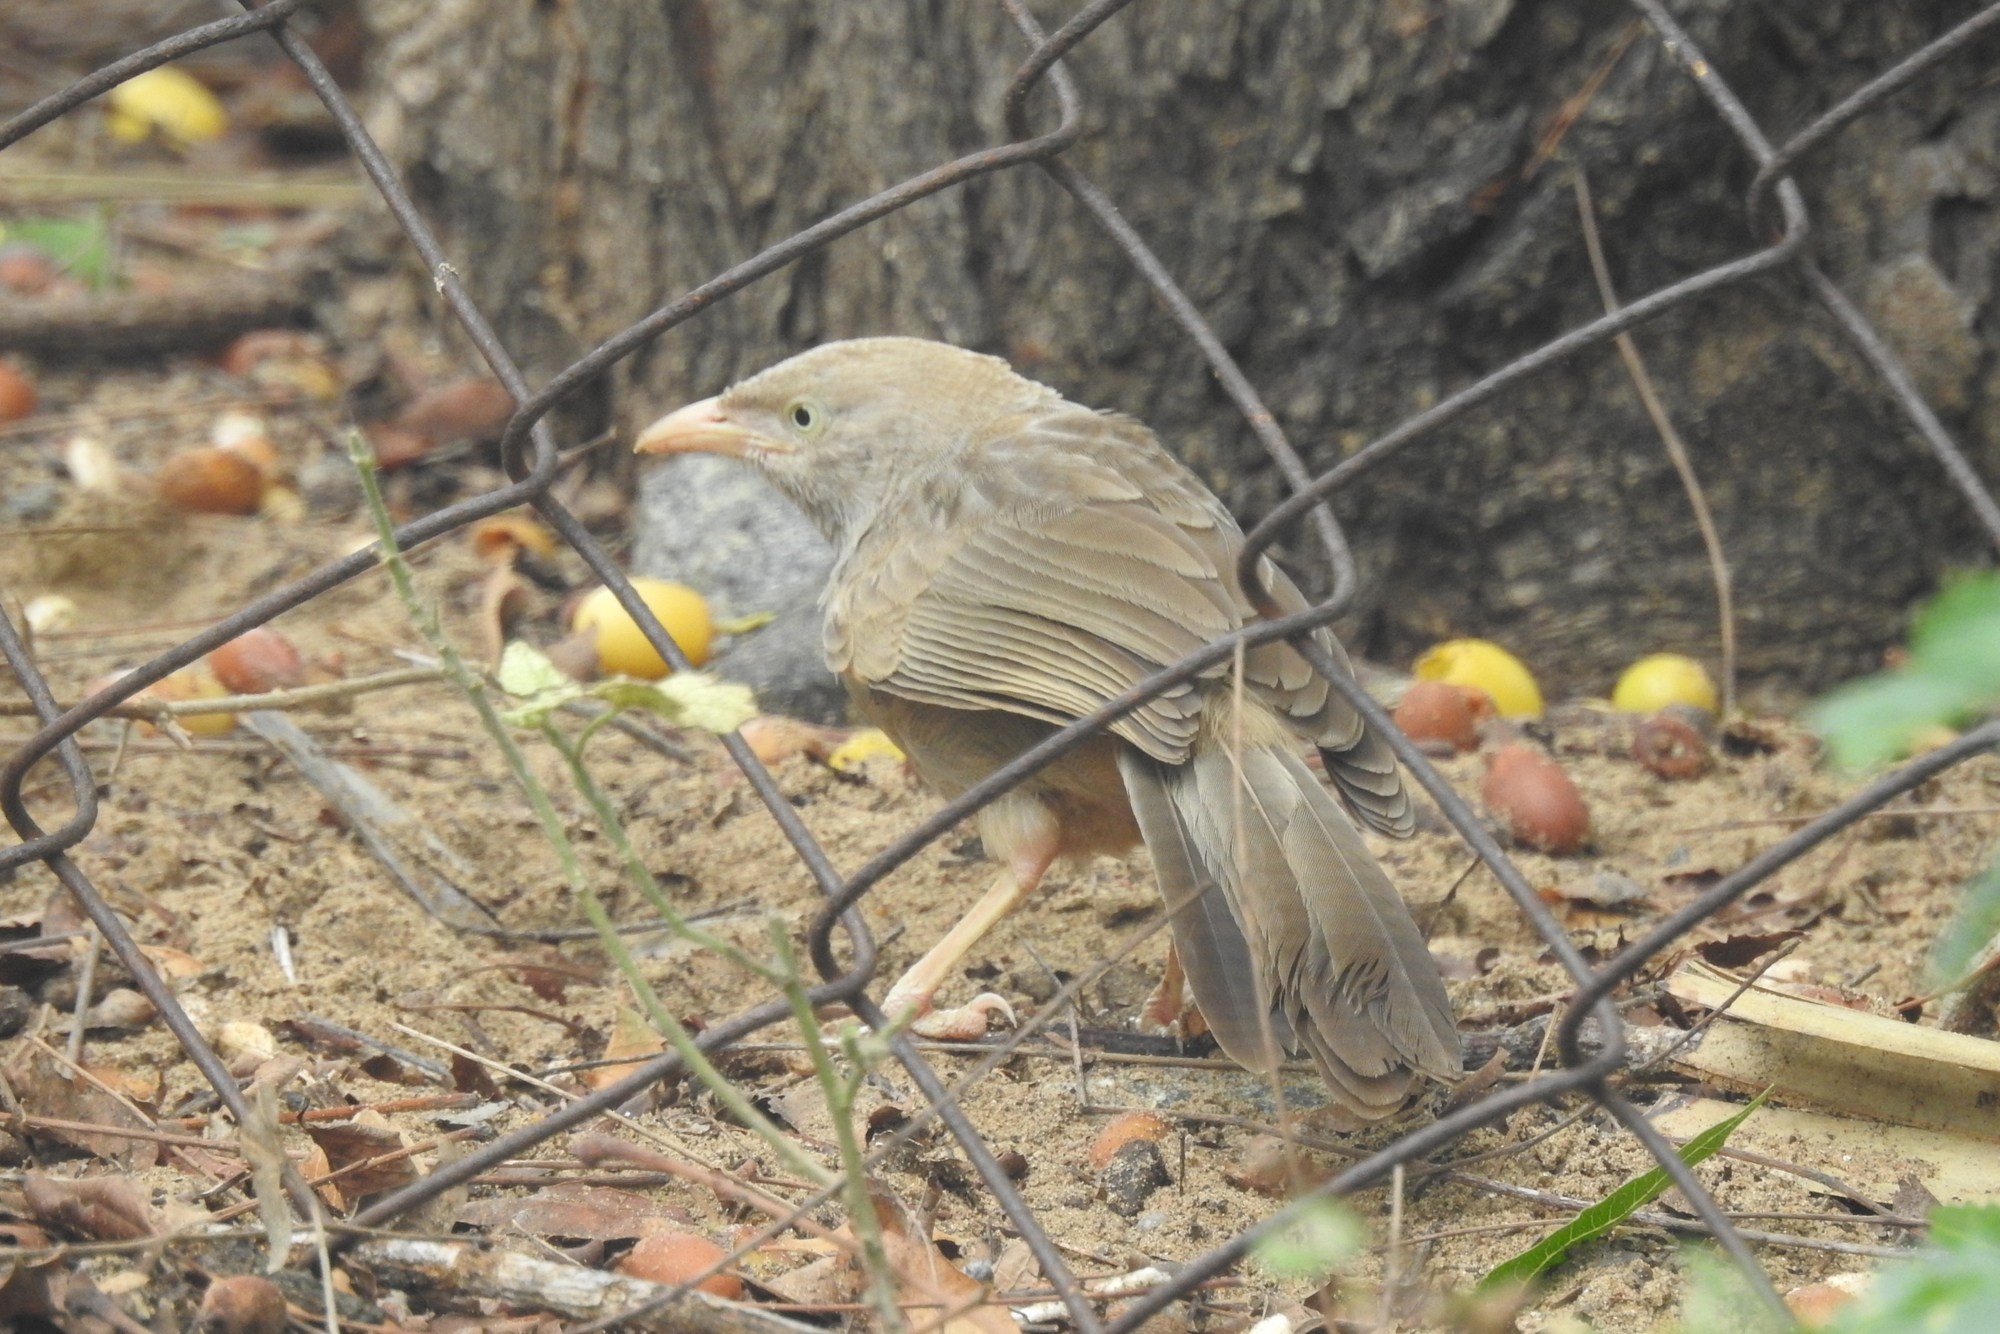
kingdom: Animalia
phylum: Chordata
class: Aves
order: Passeriformes
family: Leiothrichidae
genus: Turdoides
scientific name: Turdoides affinis
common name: Yellow-billed babbler
